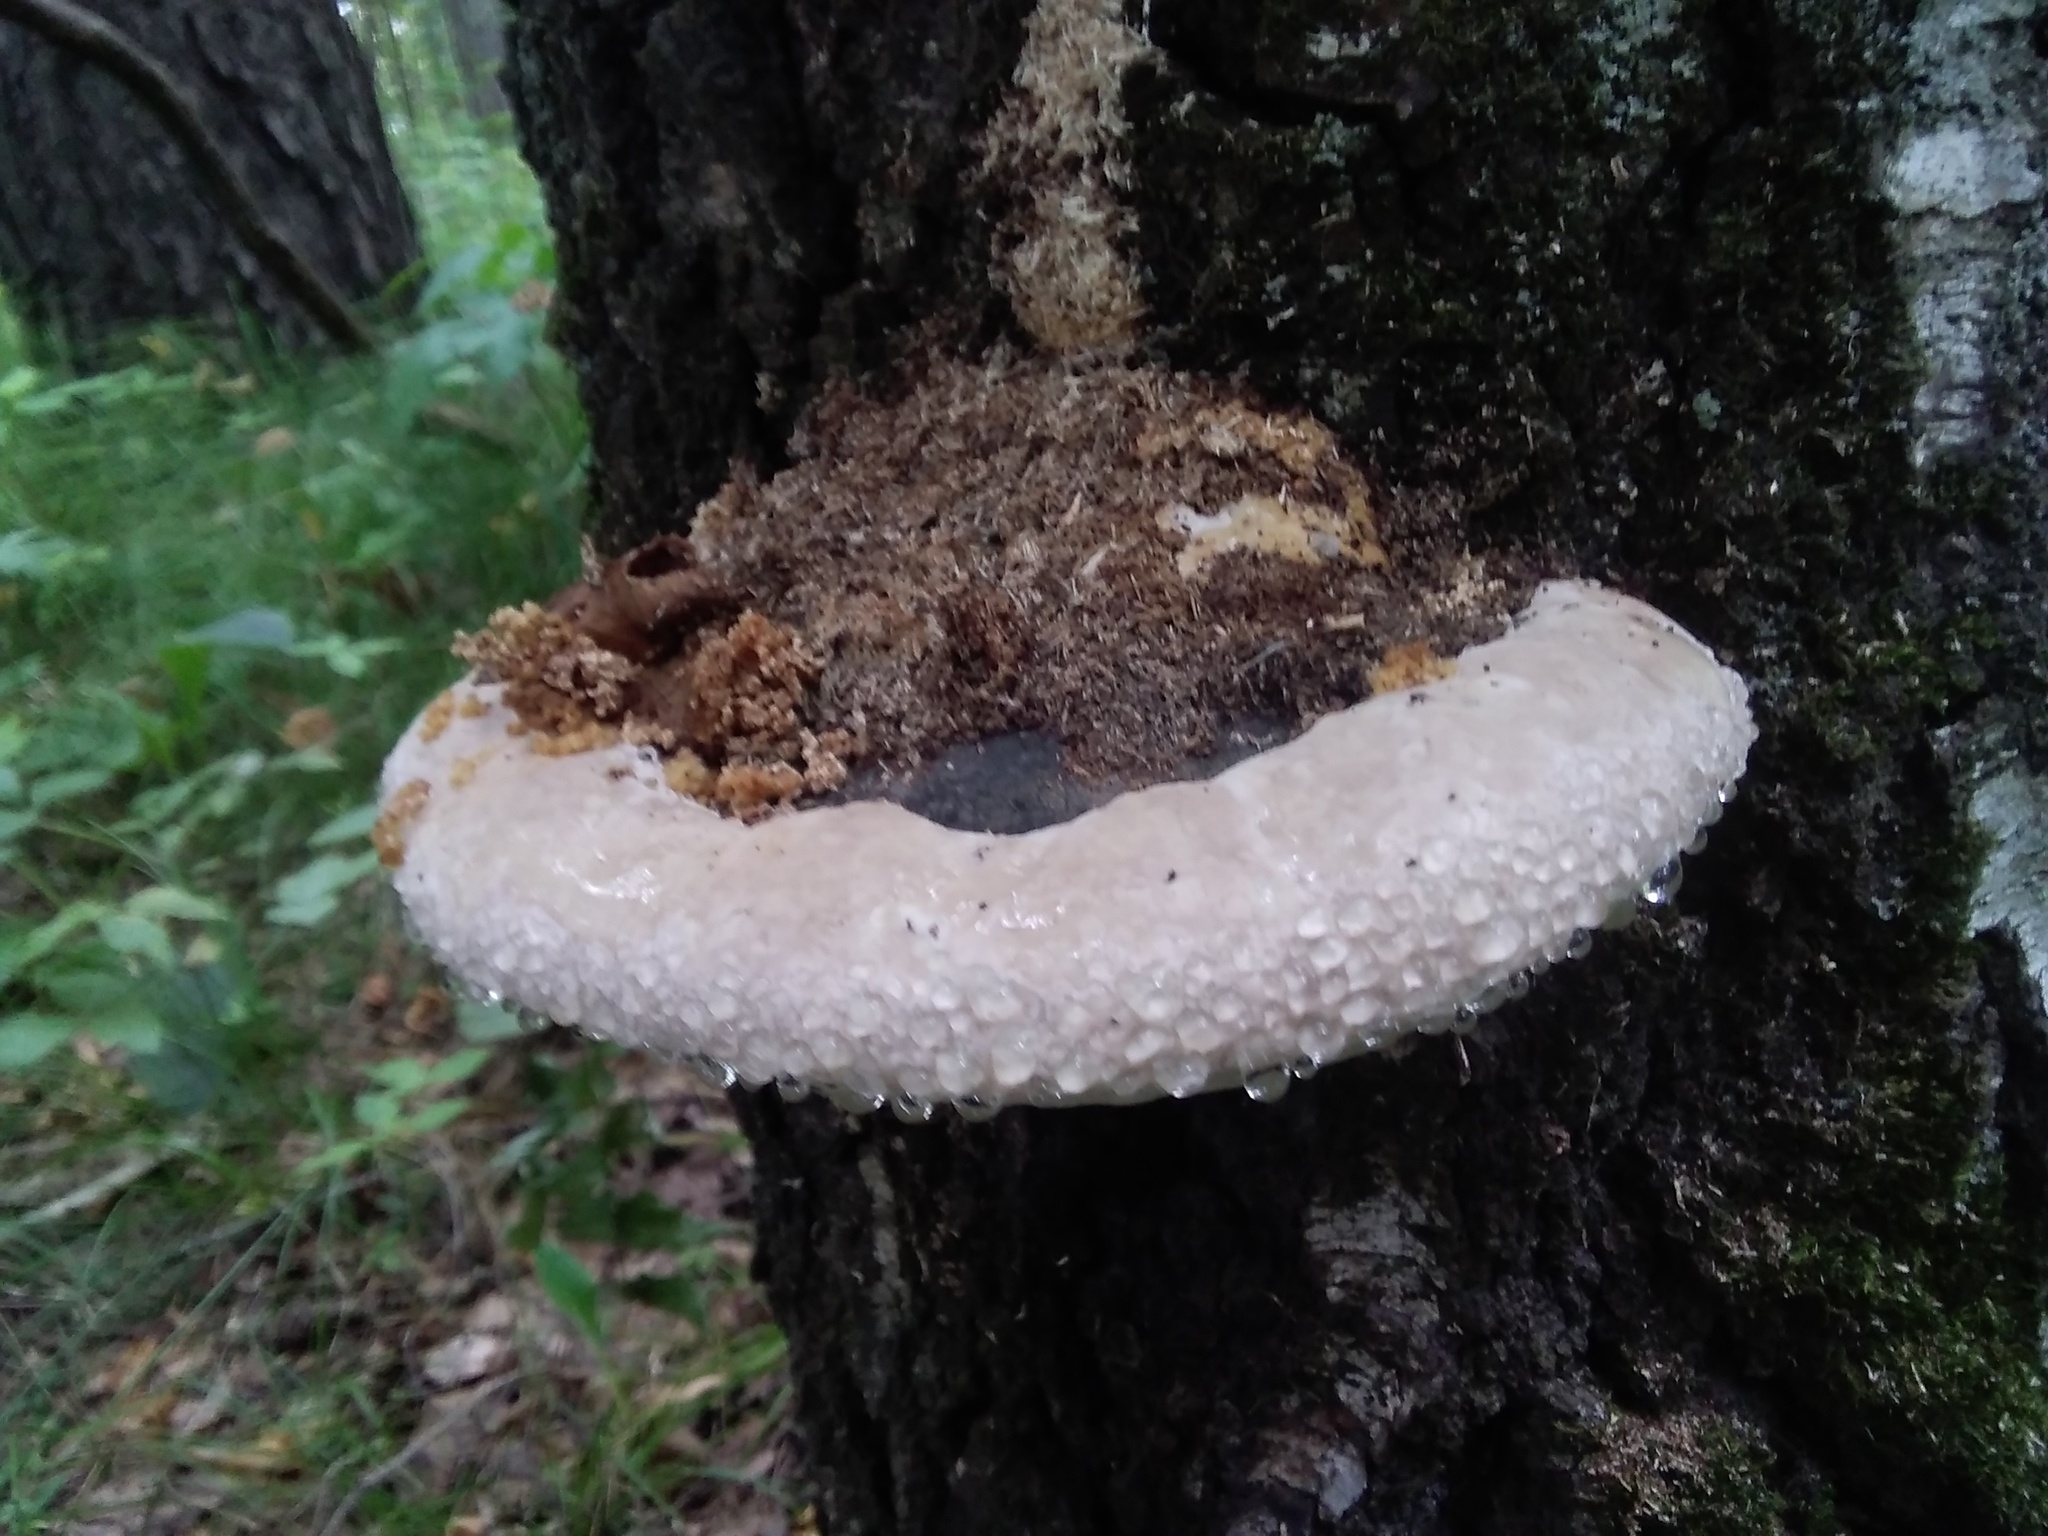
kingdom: Fungi
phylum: Basidiomycota
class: Agaricomycetes
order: Polyporales
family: Fomitopsidaceae
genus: Fomitopsis
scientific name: Fomitopsis pinicola
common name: Red-belted bracket
